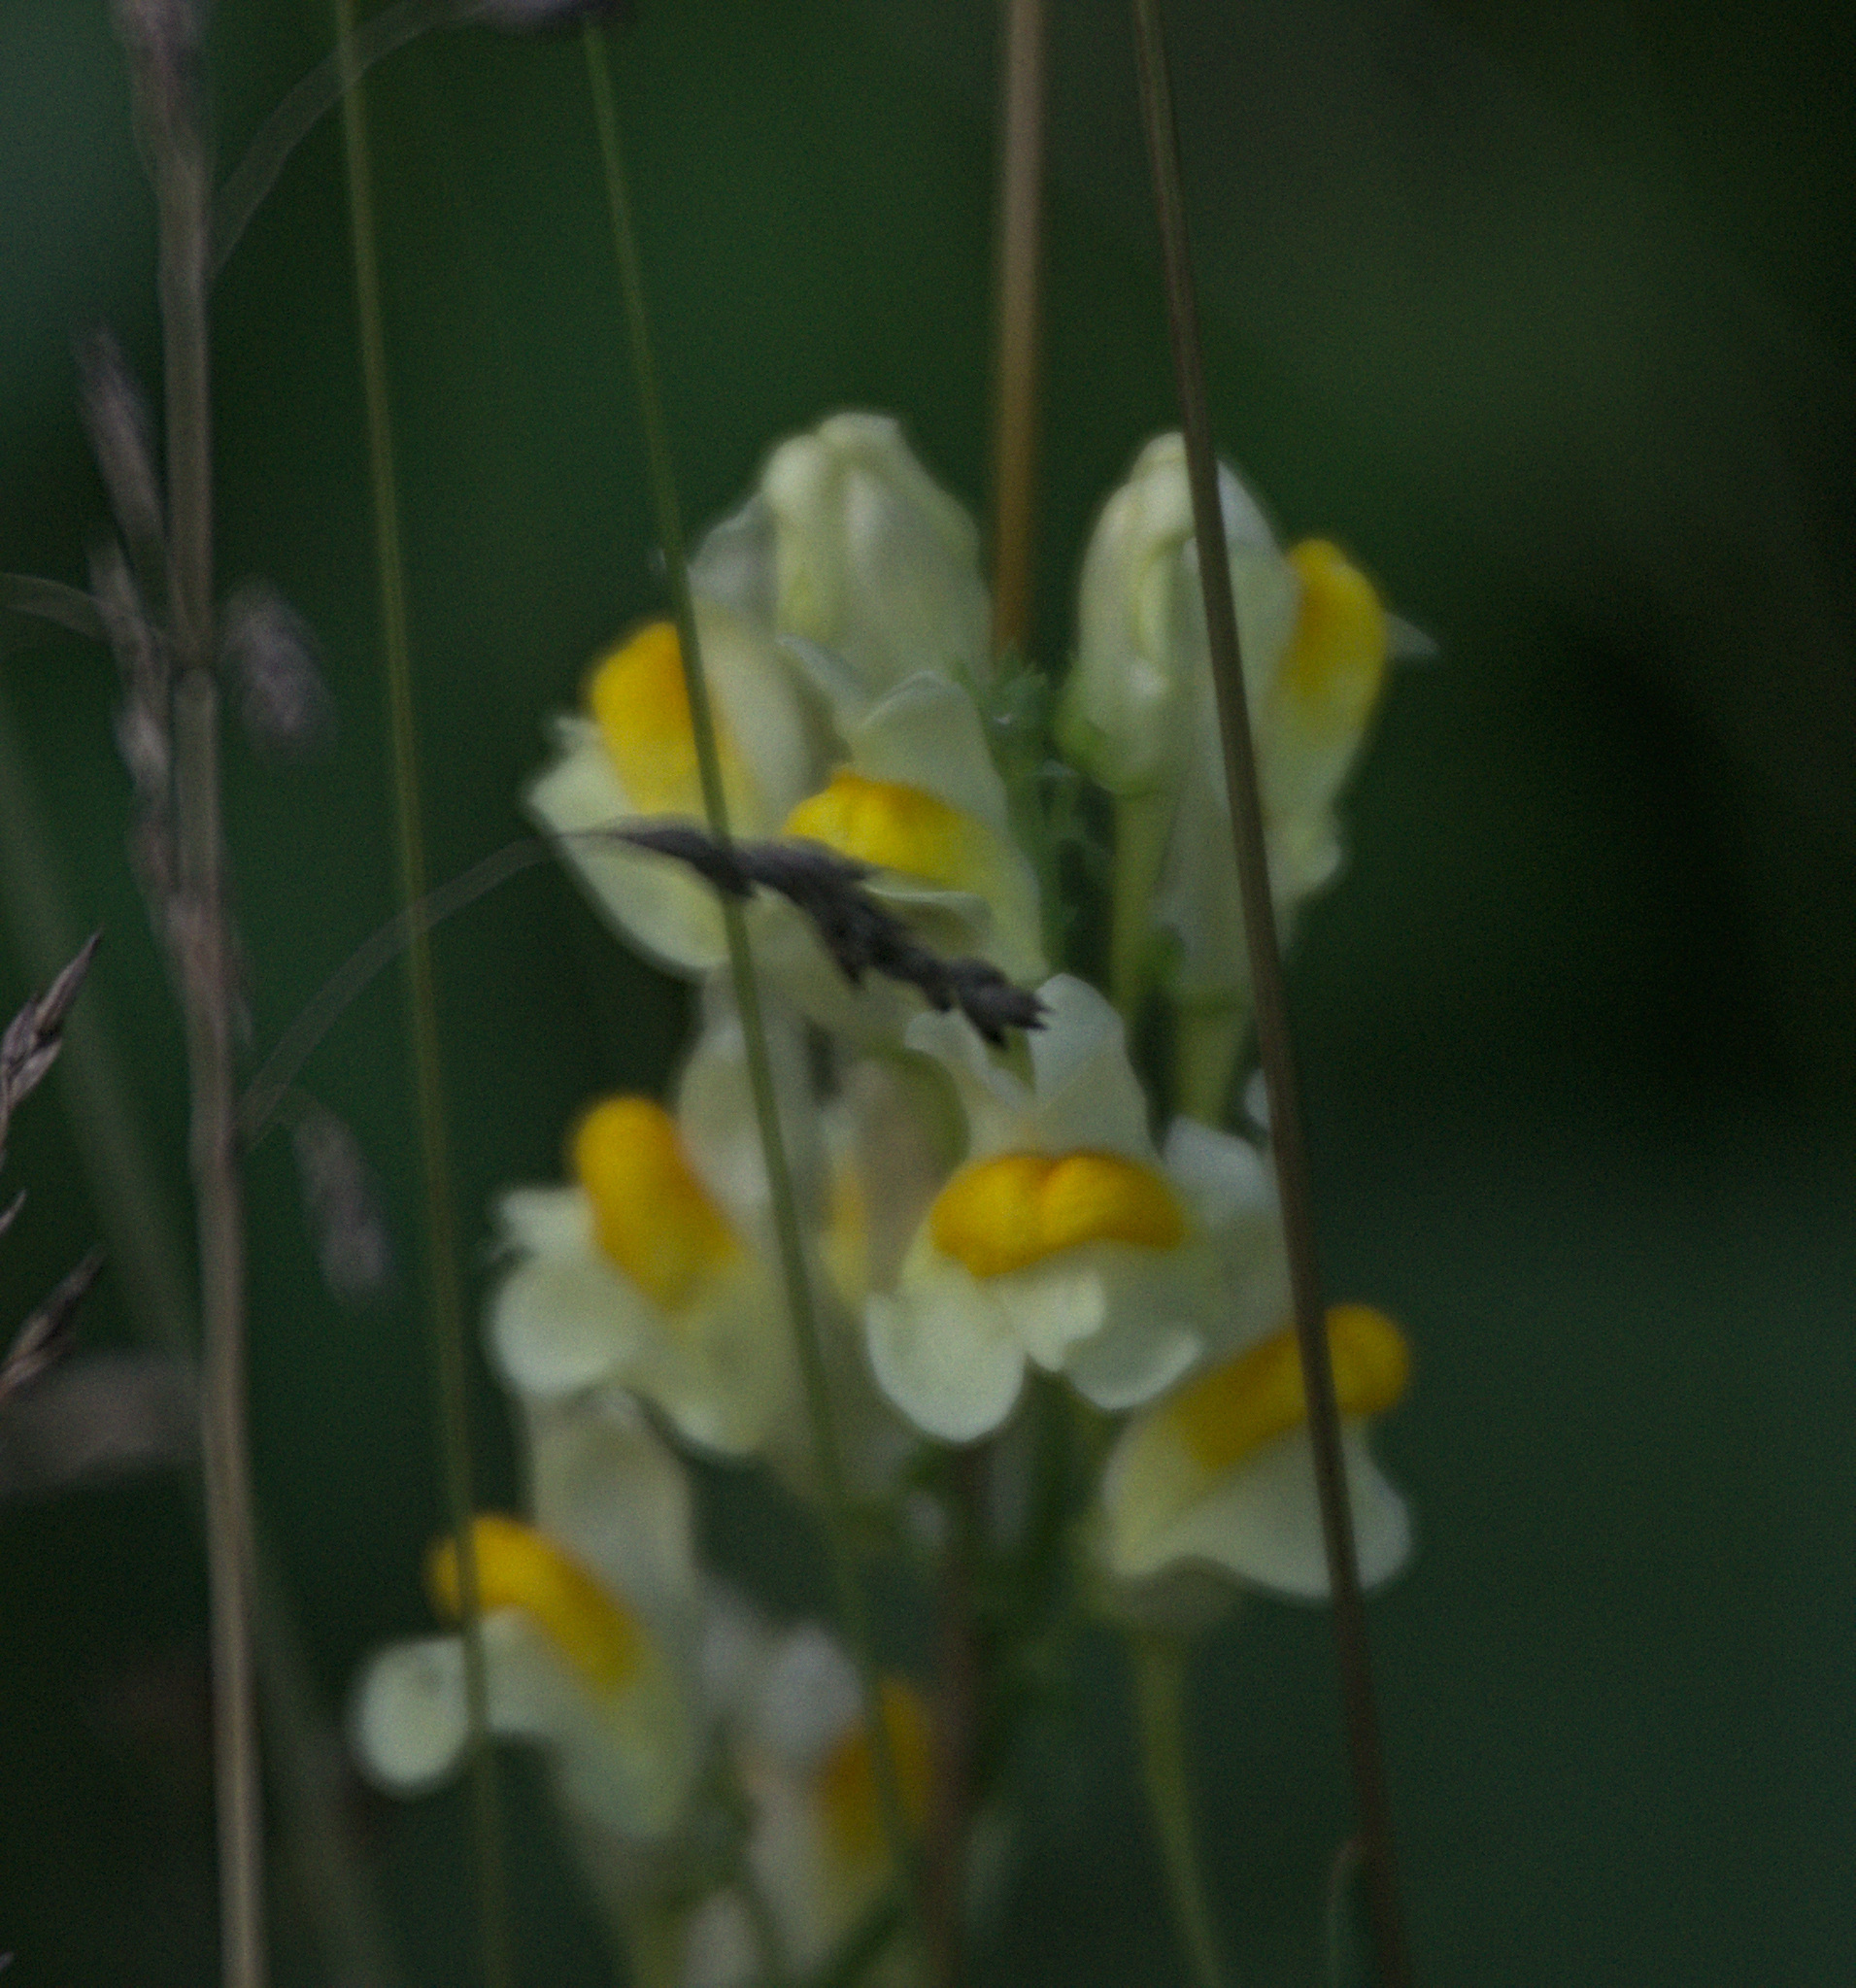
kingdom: Plantae
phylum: Tracheophyta
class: Magnoliopsida
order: Lamiales
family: Plantaginaceae
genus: Linaria
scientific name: Linaria vulgaris
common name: Butter and eggs
